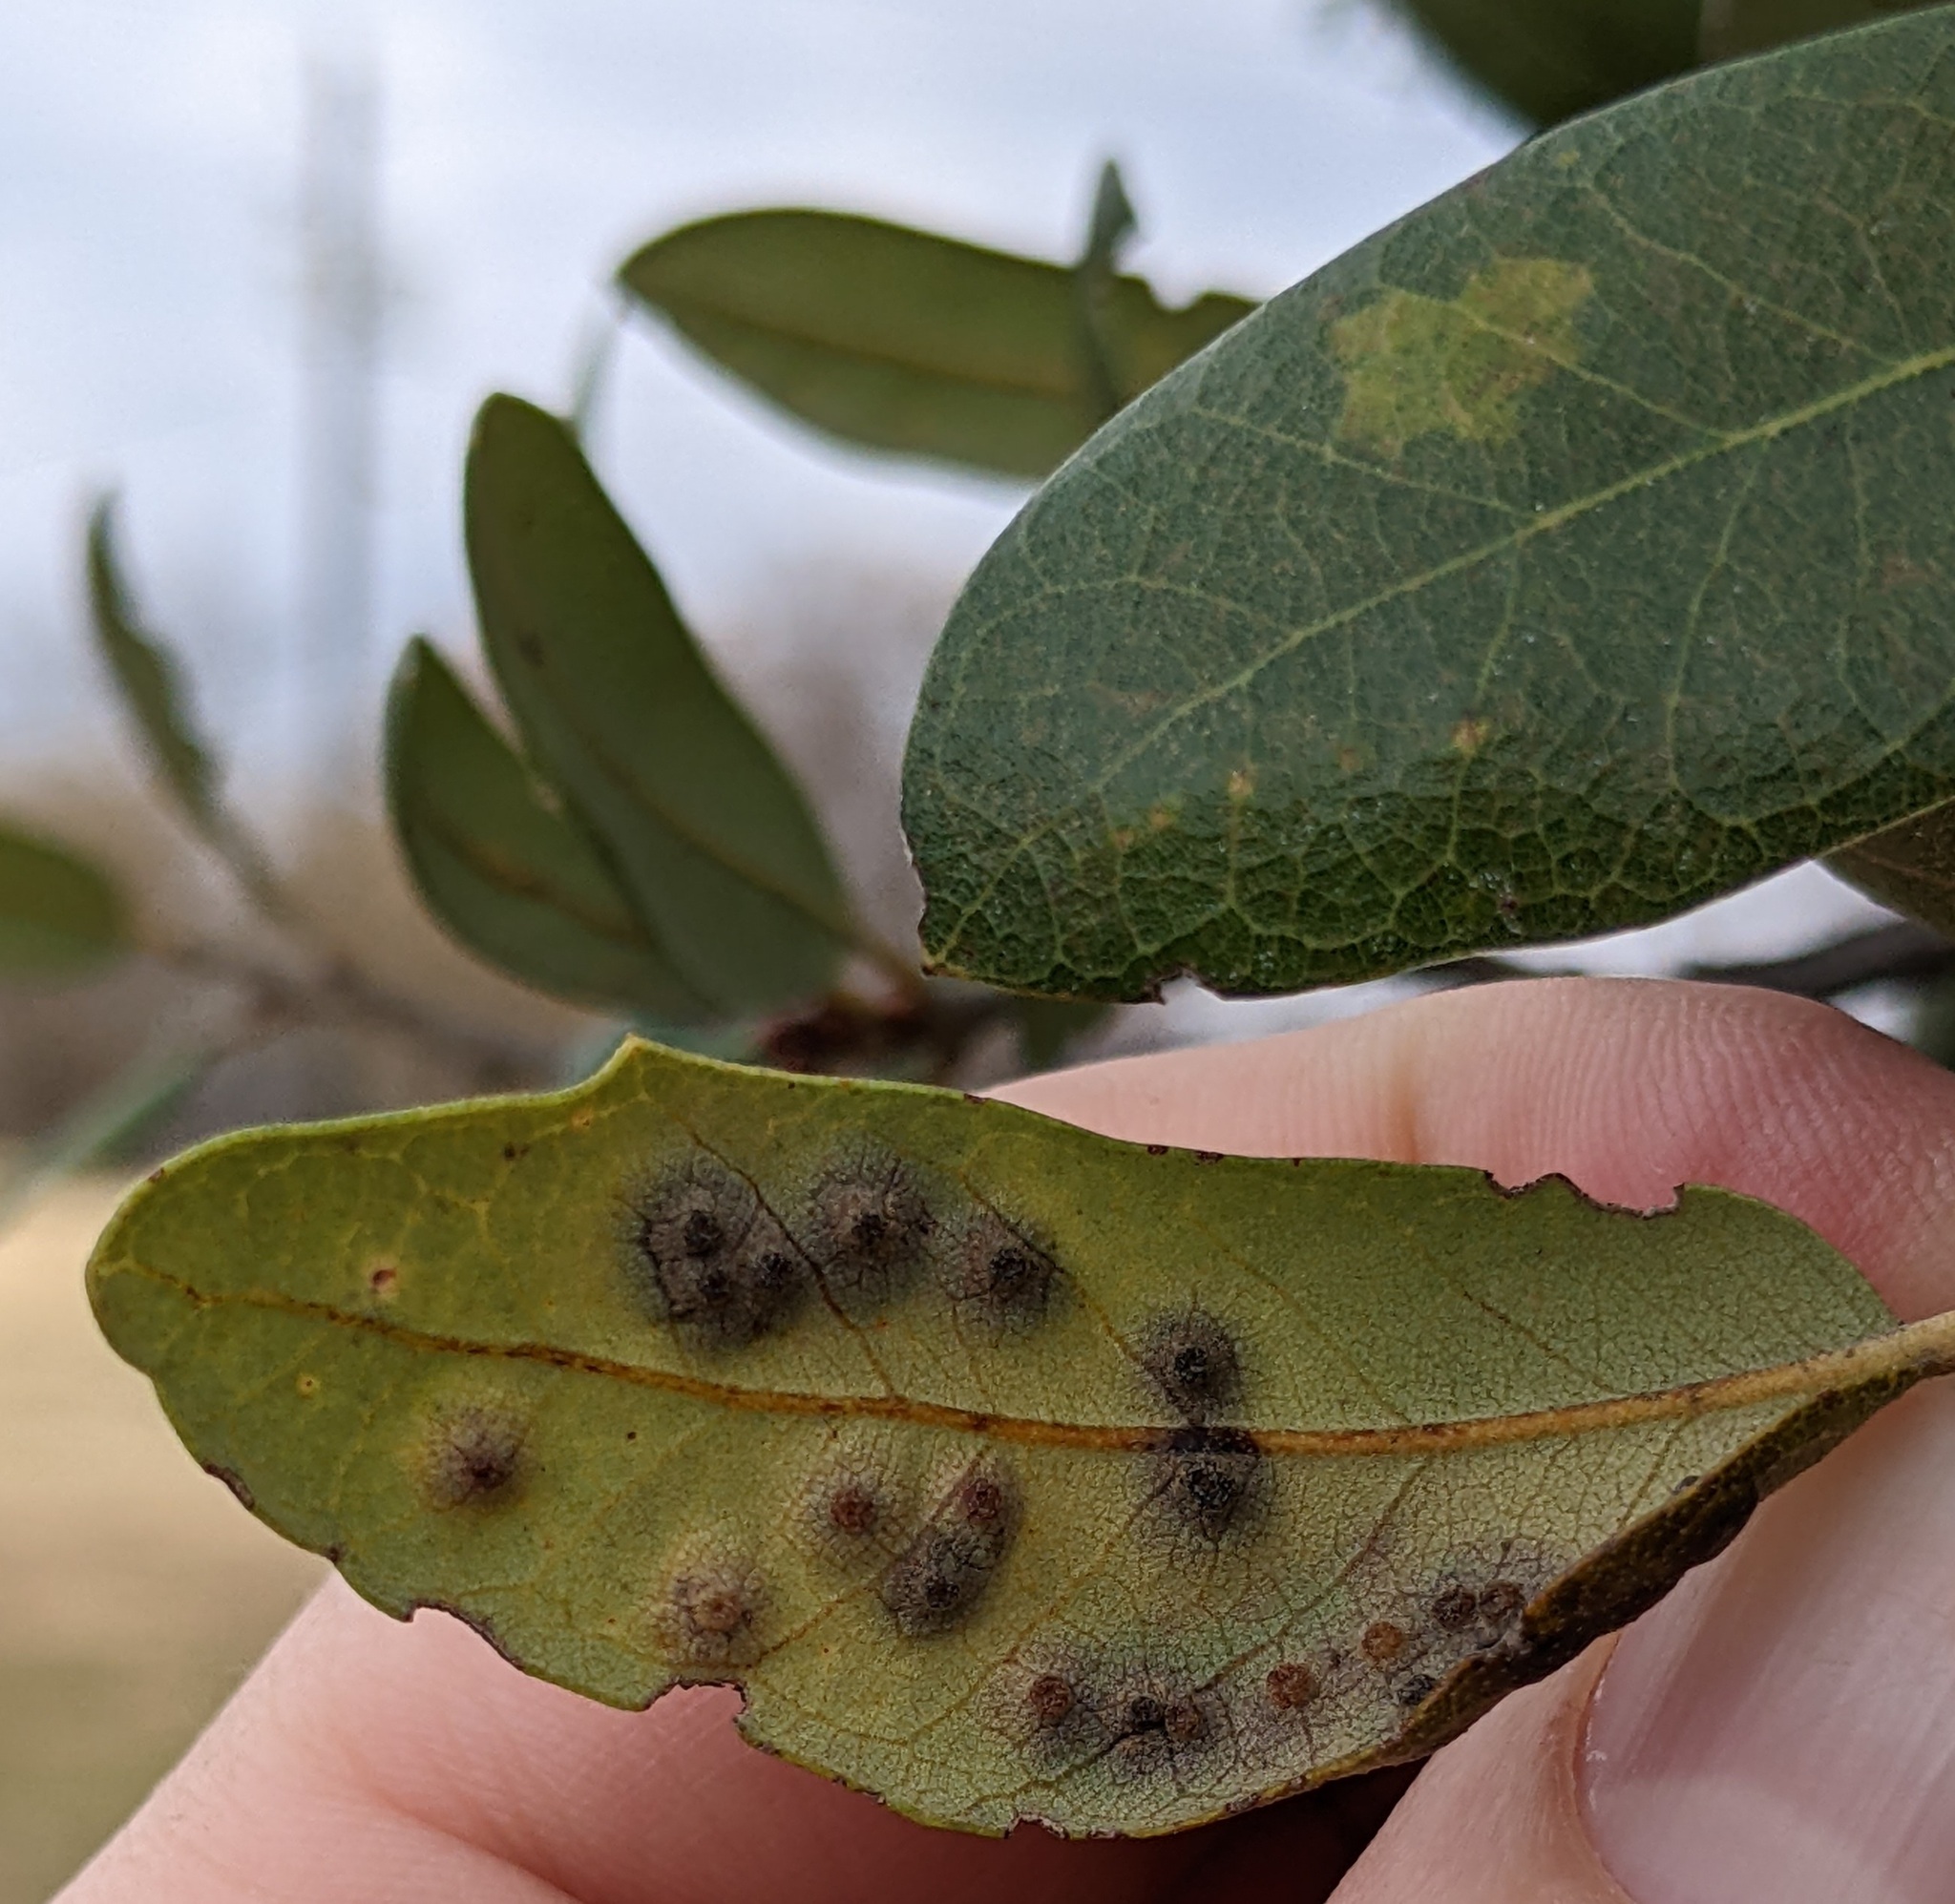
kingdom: Animalia
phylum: Arthropoda
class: Insecta
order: Hymenoptera
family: Cynipidae
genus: Neuroterus
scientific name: Neuroterus
